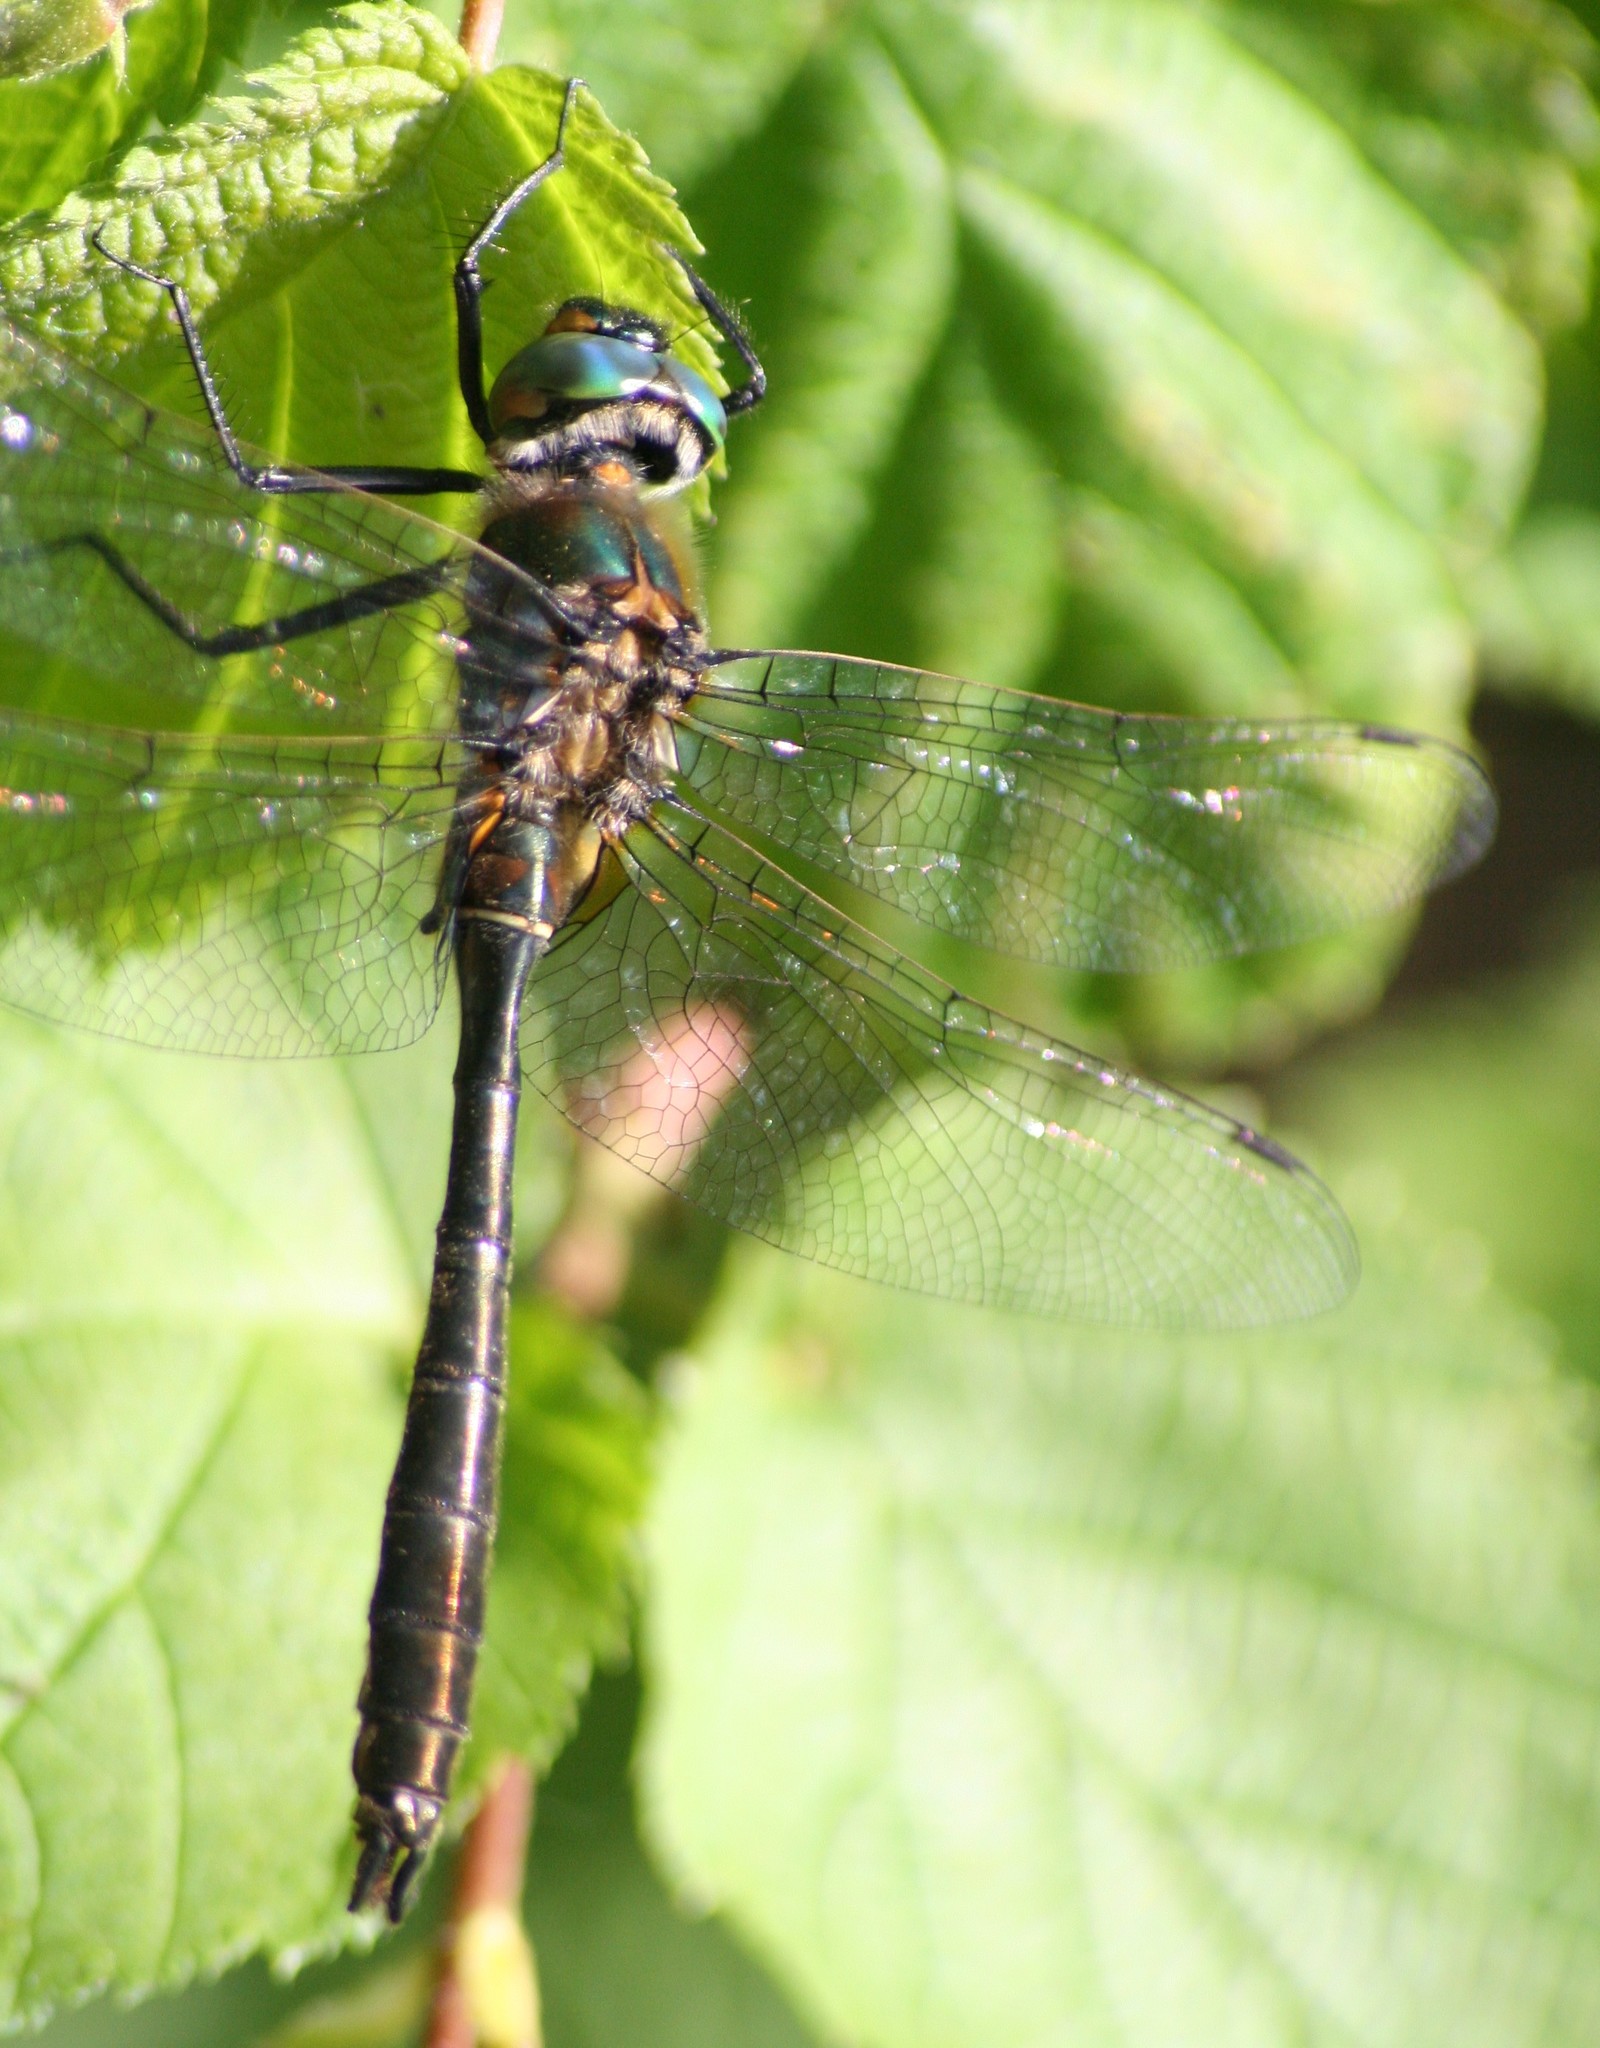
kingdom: Animalia
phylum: Arthropoda
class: Insecta
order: Odonata
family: Corduliidae
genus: Cordulia
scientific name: Cordulia shurtleffii
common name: American emerald
